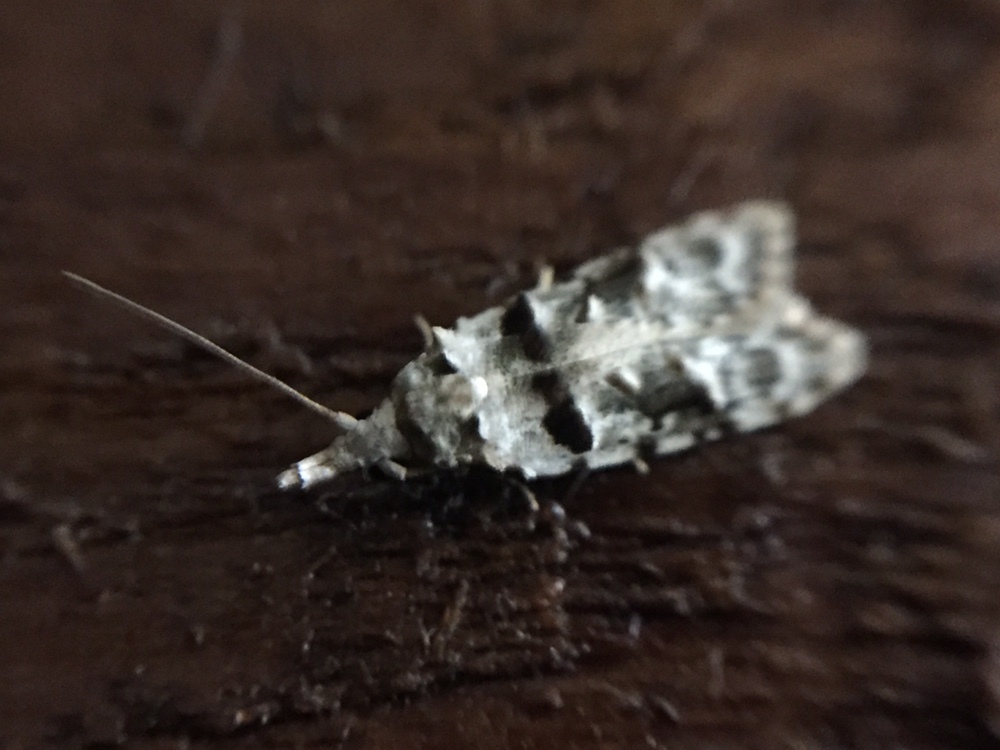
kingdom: Animalia
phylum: Arthropoda
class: Insecta
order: Lepidoptera
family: Carposinidae
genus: Coscinoptycha
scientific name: Coscinoptycha improbana
